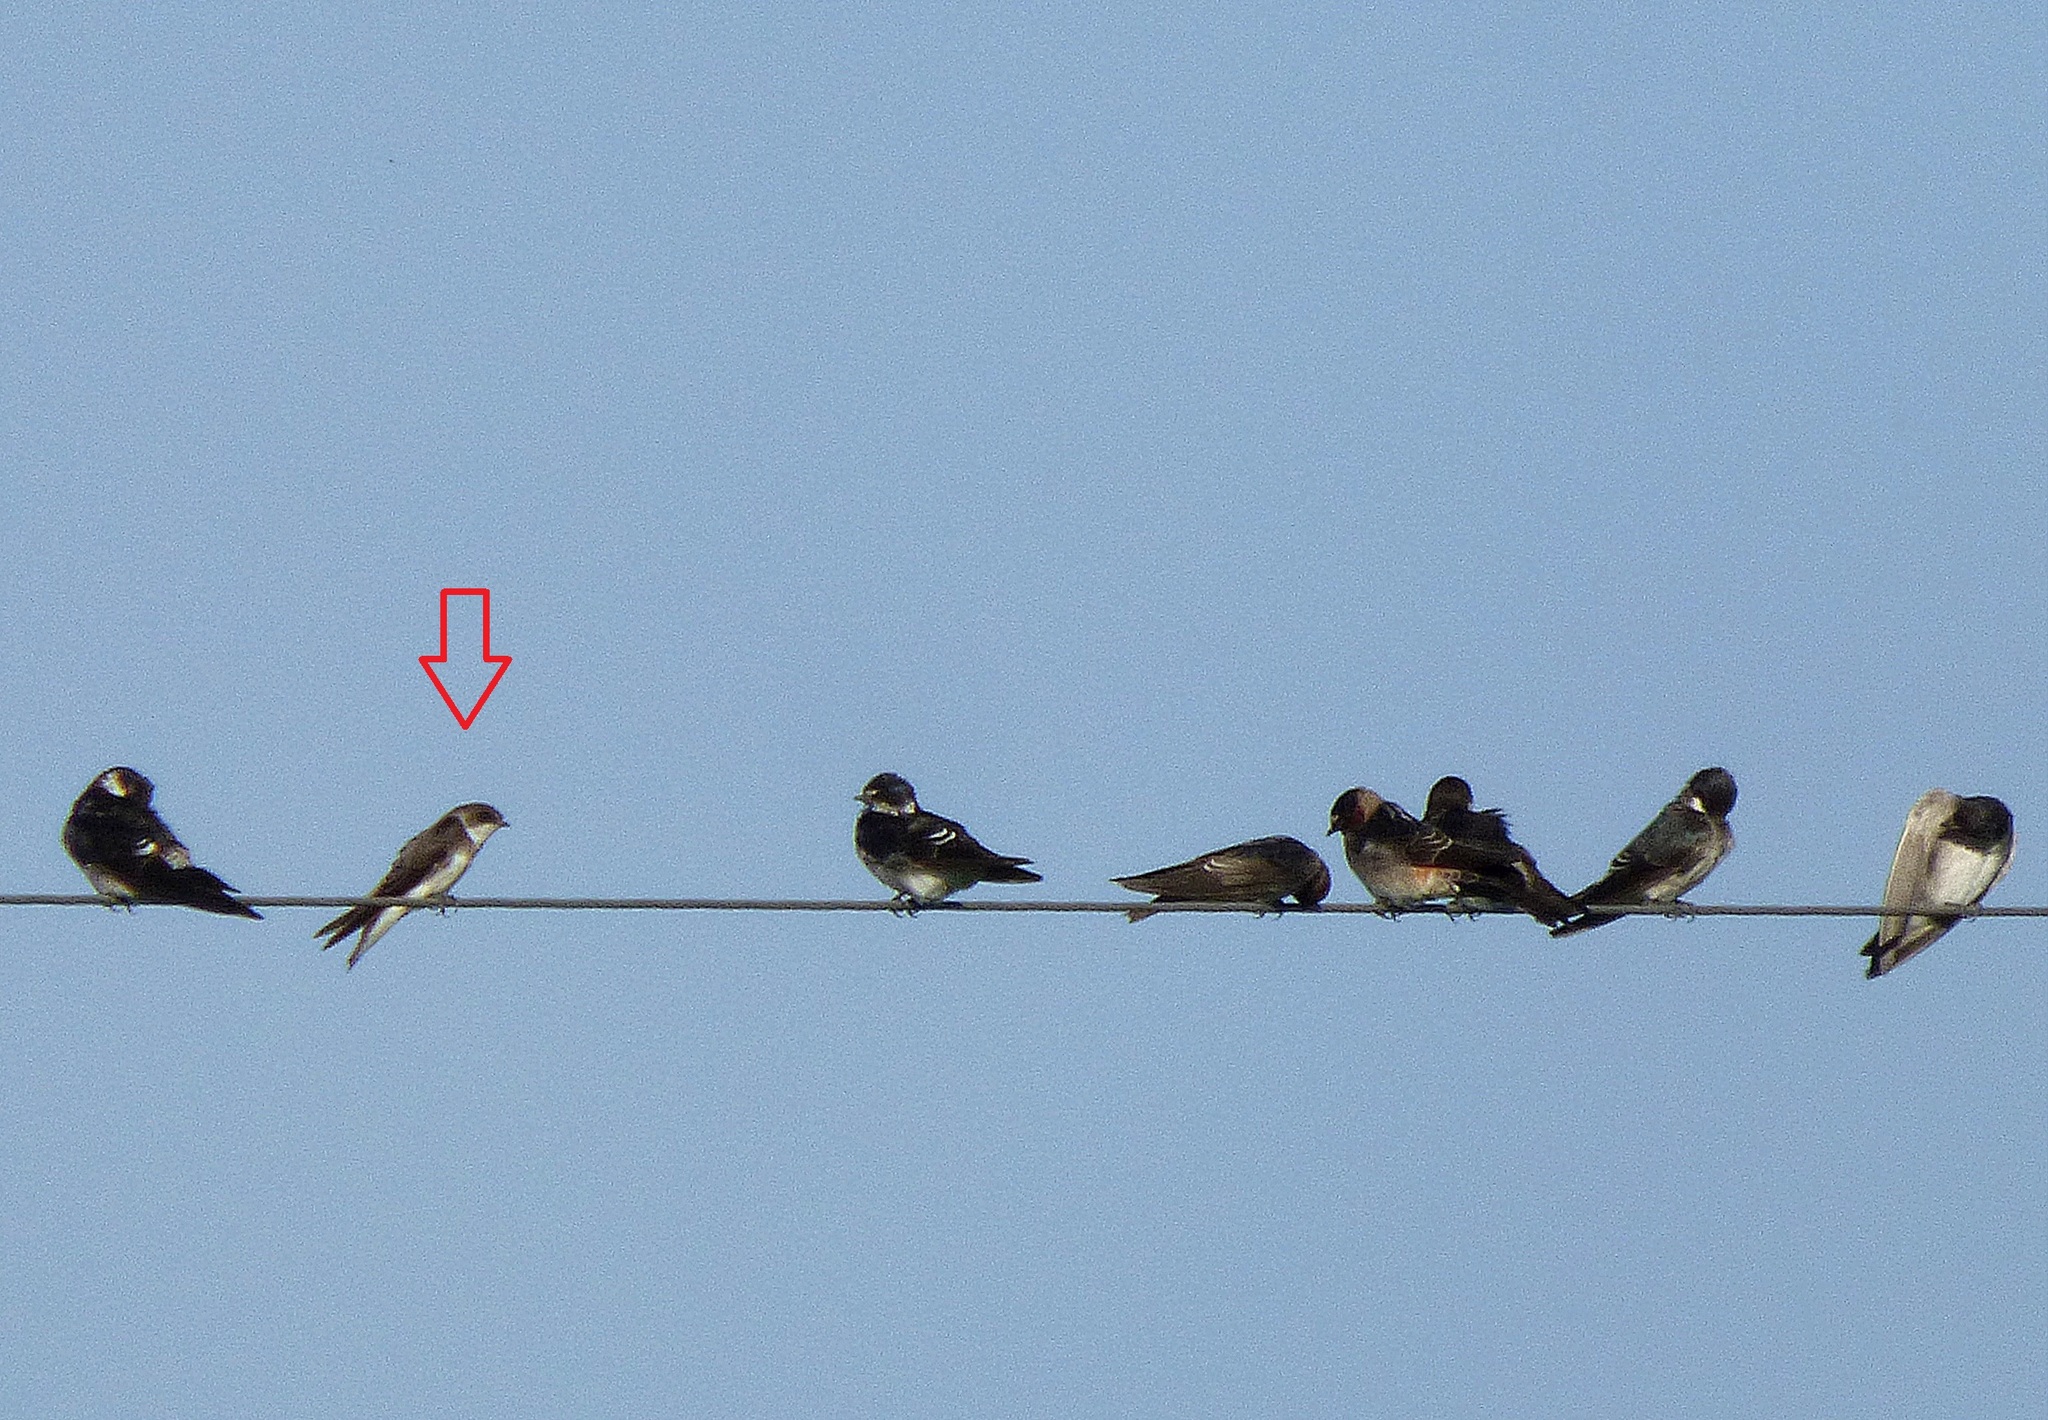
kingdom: Animalia
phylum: Chordata
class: Aves
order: Passeriformes
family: Hirundinidae
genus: Riparia
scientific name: Riparia riparia
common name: Sand martin
